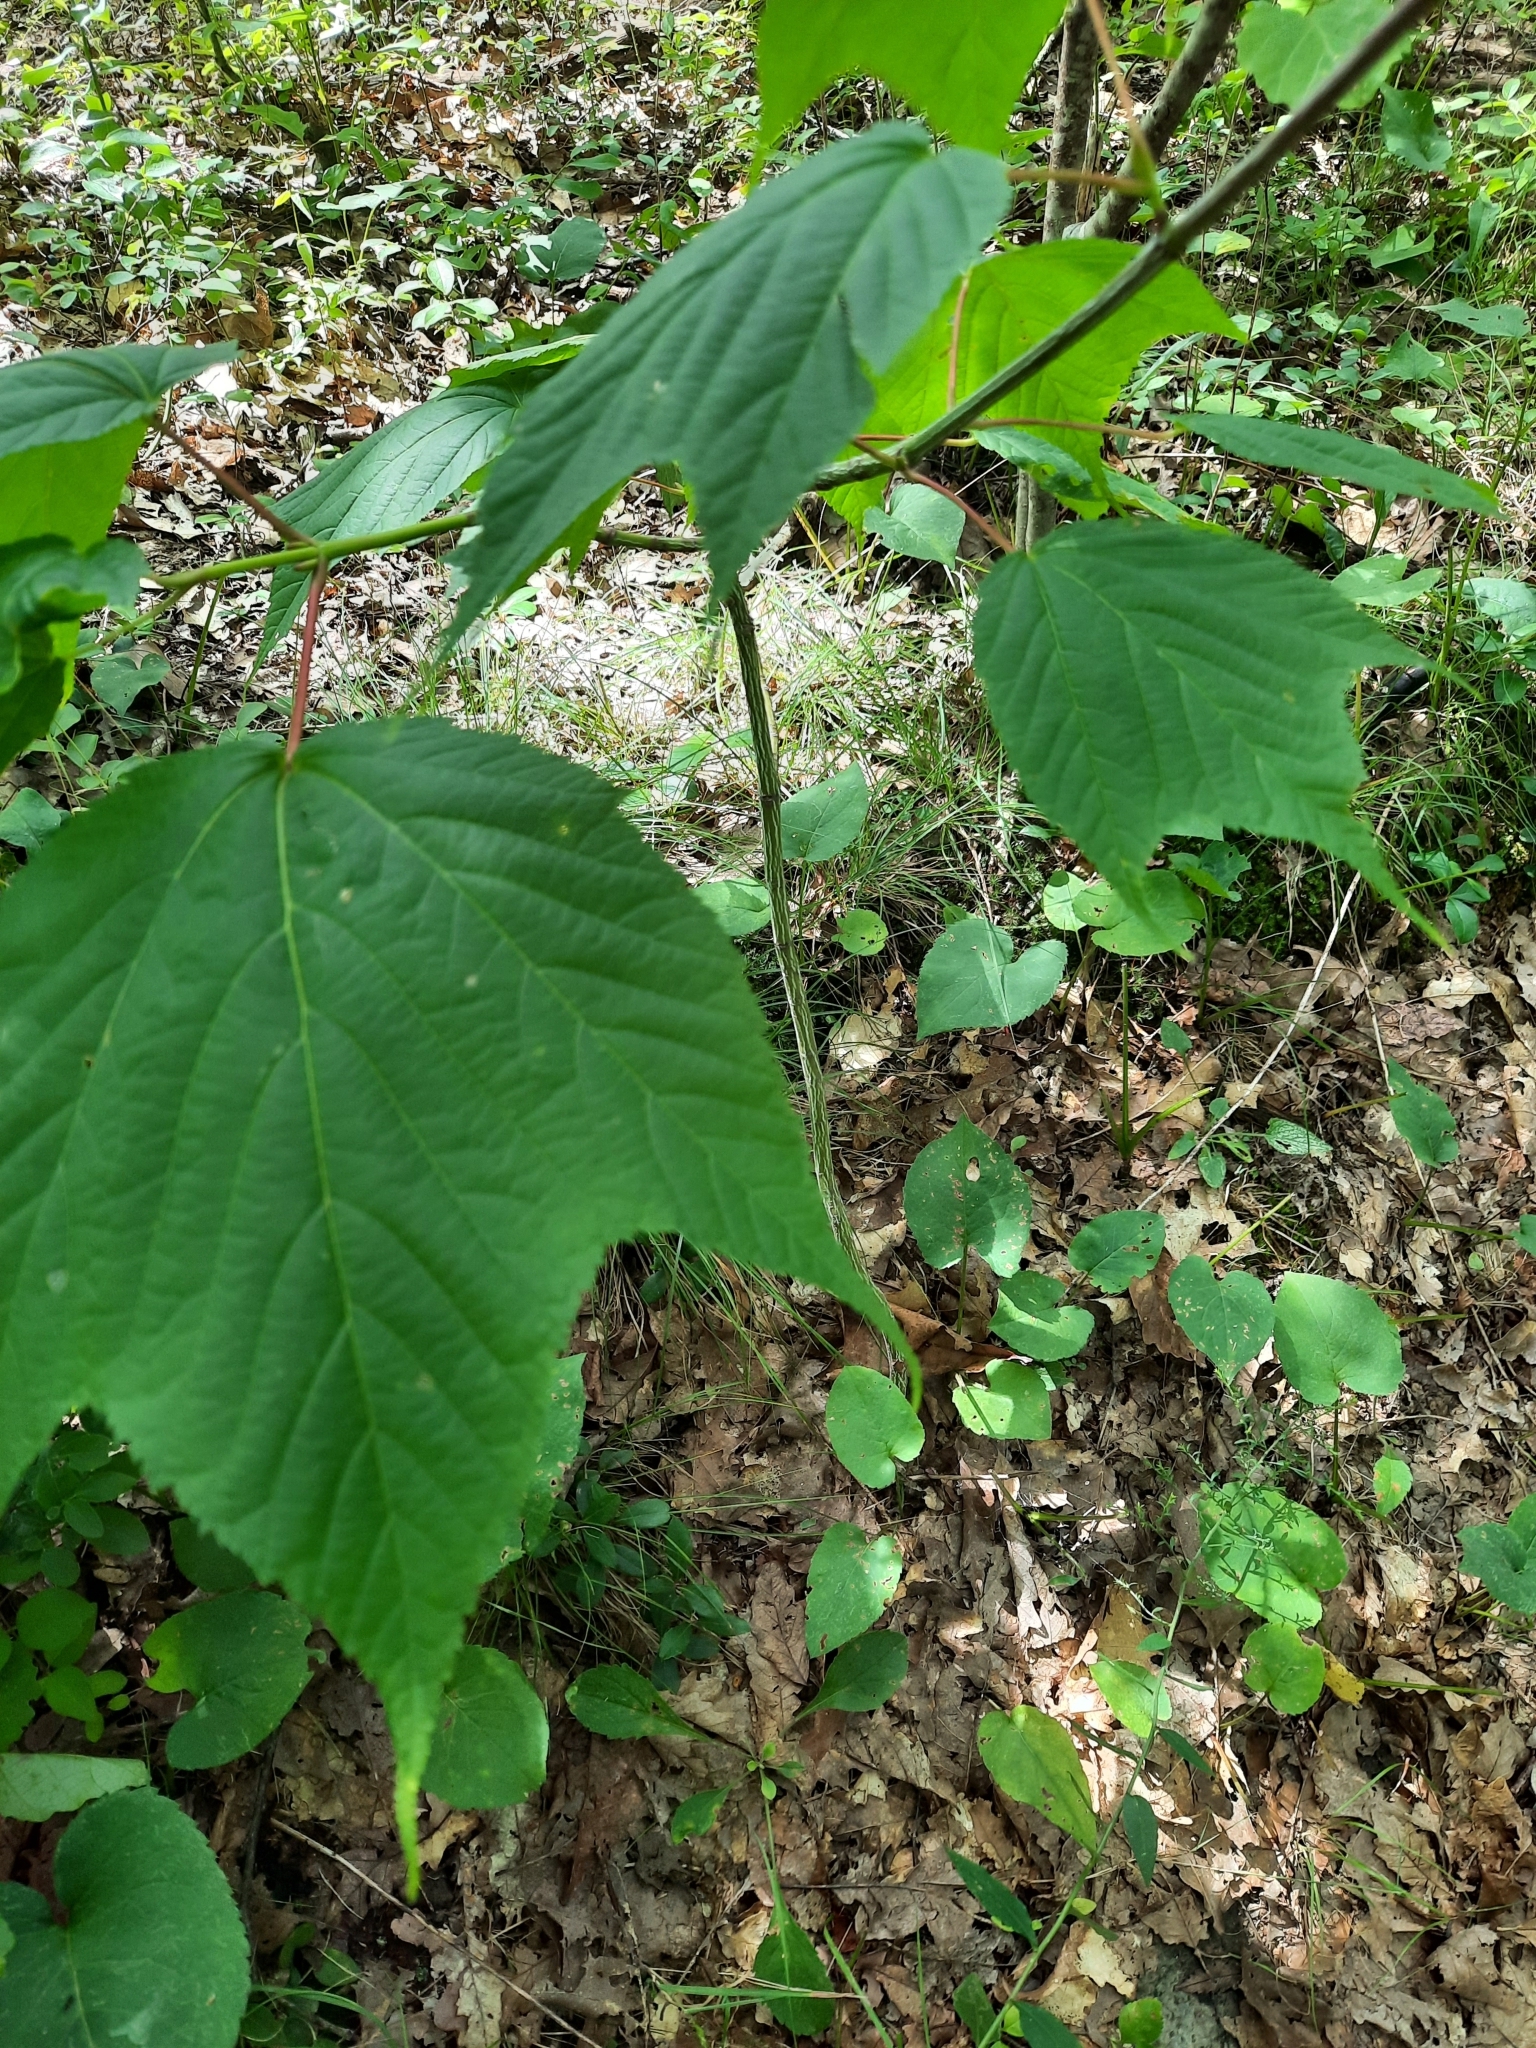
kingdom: Plantae
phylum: Tracheophyta
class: Magnoliopsida
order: Sapindales
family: Sapindaceae
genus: Acer
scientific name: Acer pensylvanicum
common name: Moosewood
